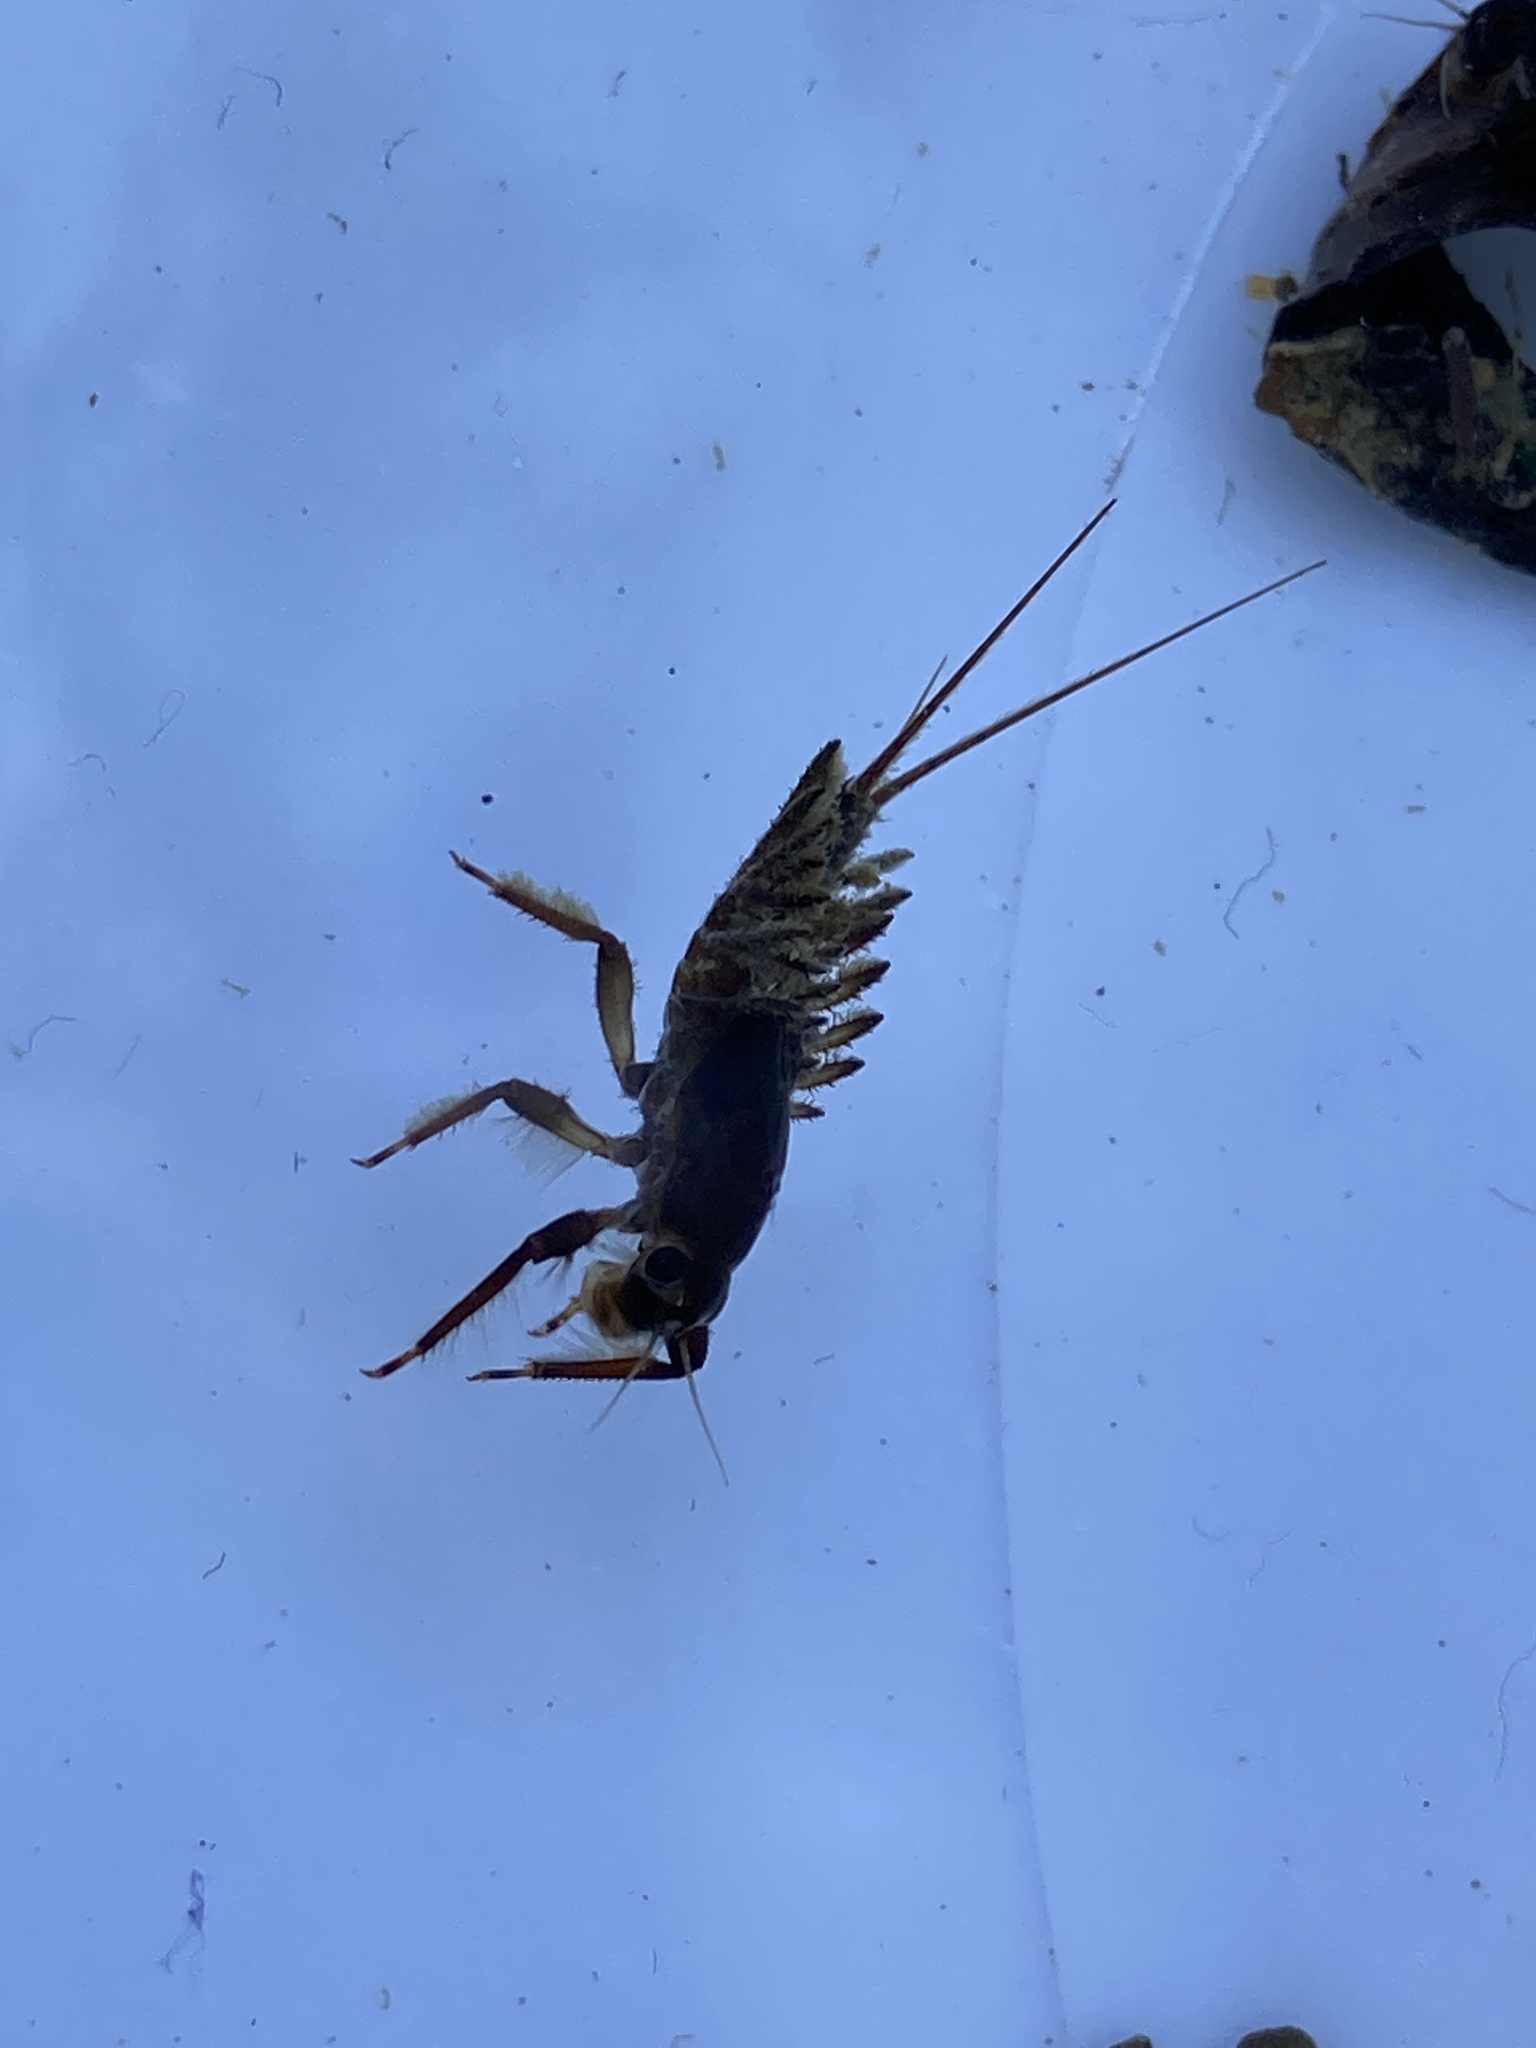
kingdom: Animalia
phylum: Arthropoda
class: Insecta
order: Ephemeroptera
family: Coloburiscidae
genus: Coloburiscus
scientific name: Coloburiscus humeralis
